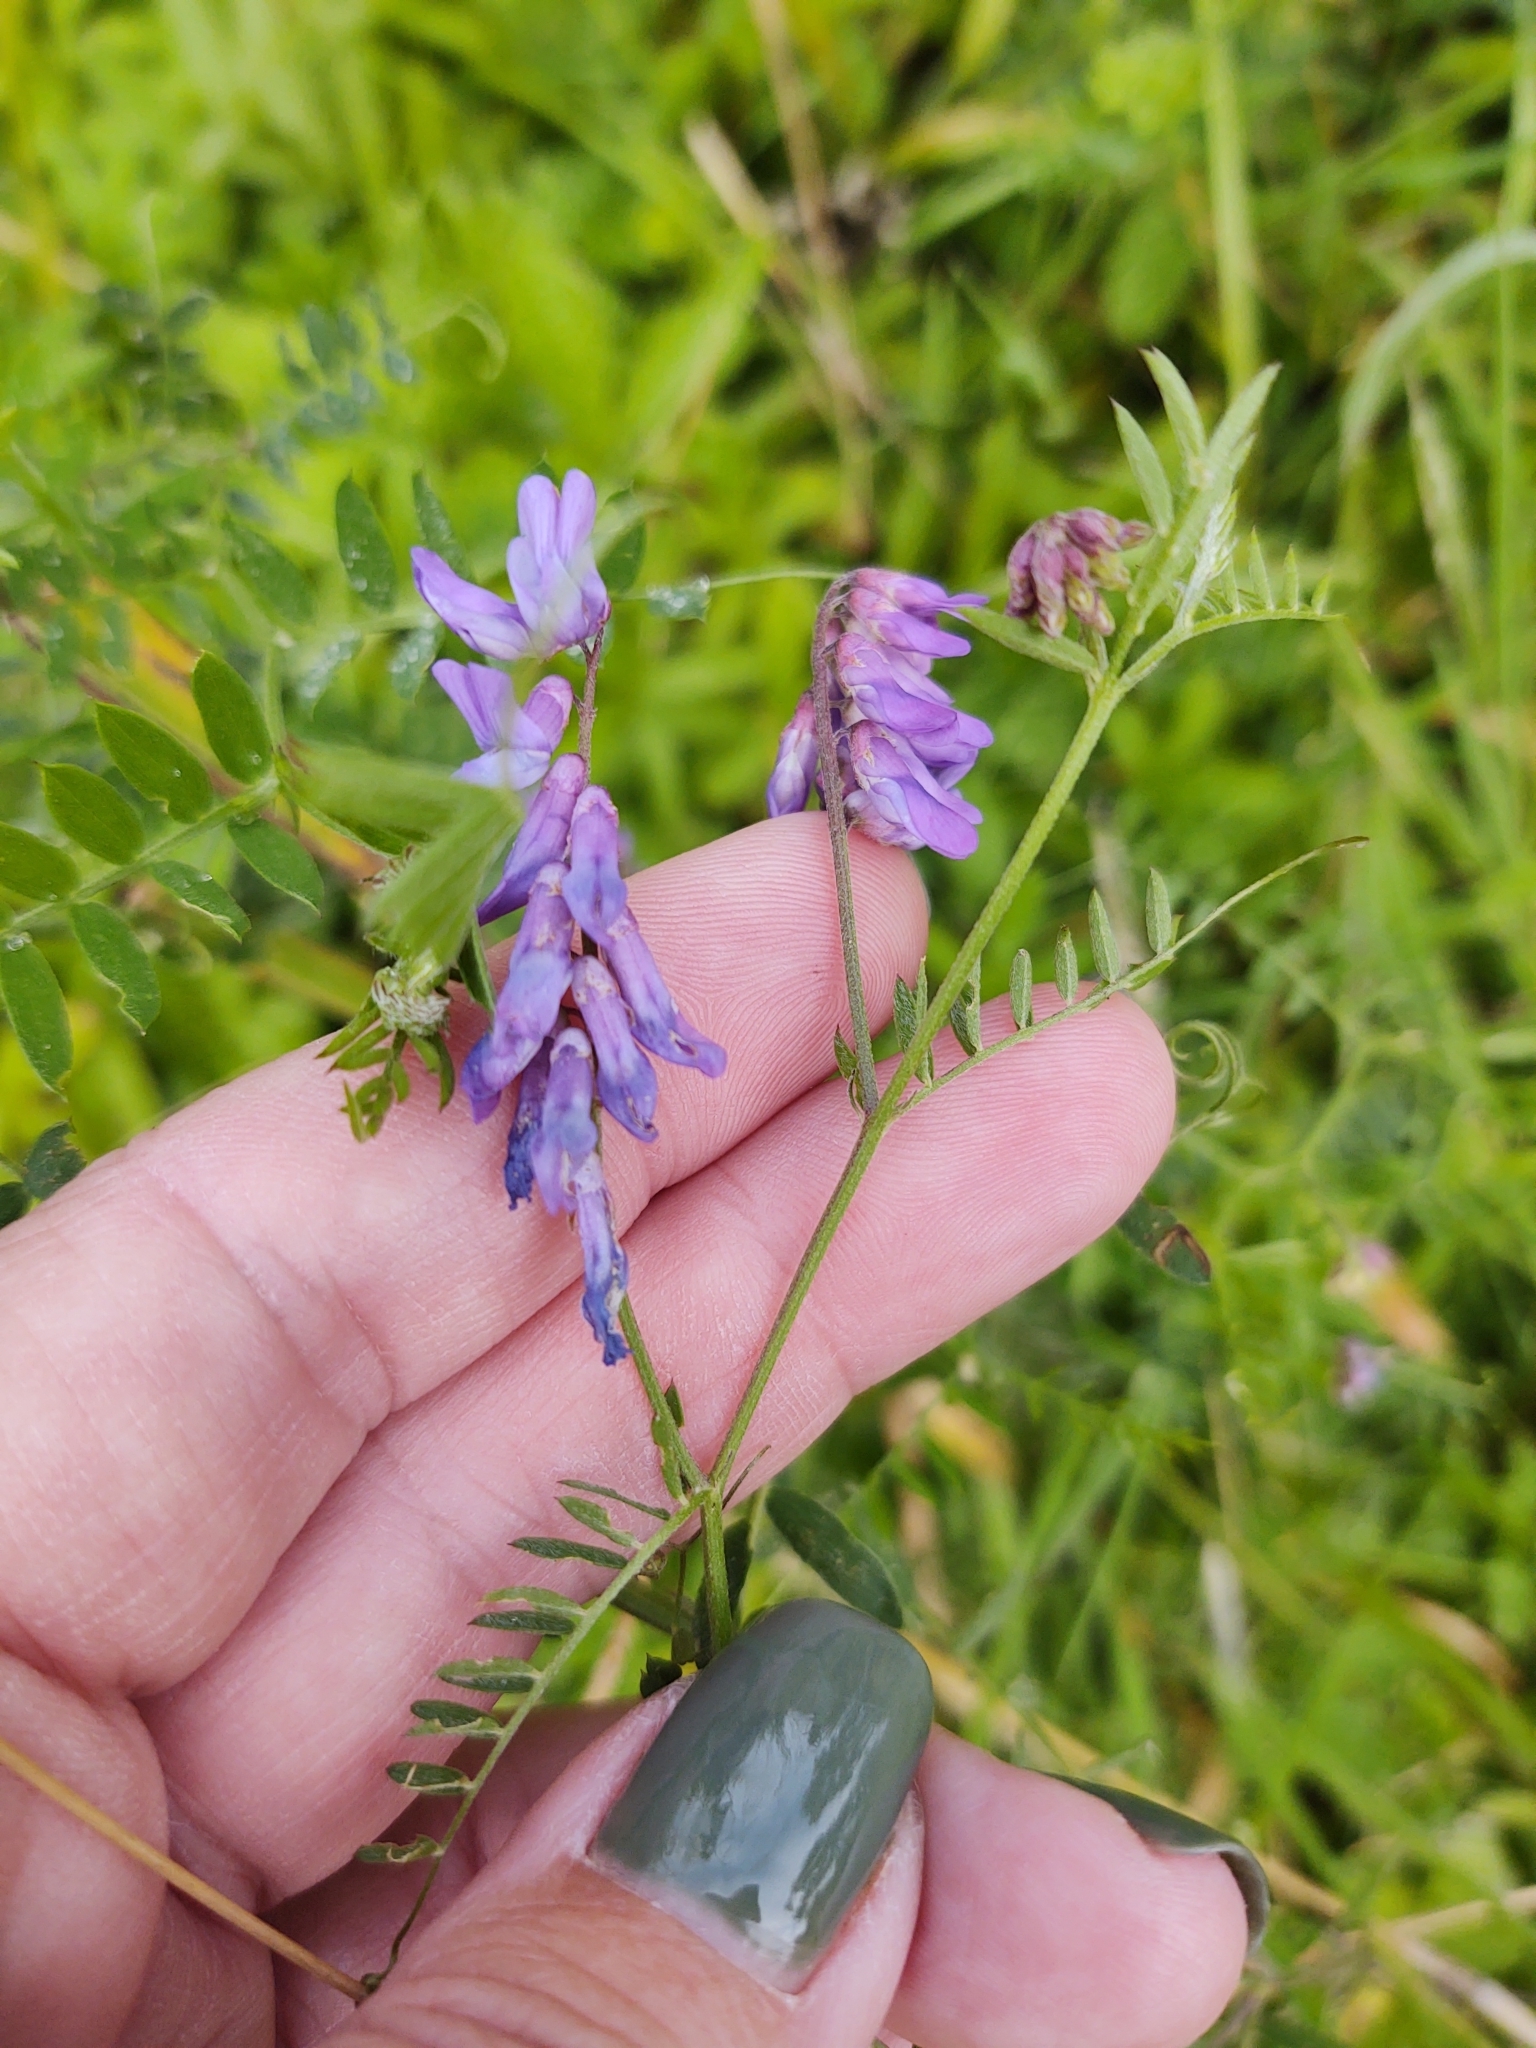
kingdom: Plantae
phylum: Tracheophyta
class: Magnoliopsida
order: Fabales
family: Fabaceae
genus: Vicia
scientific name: Vicia cracca
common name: Bird vetch
